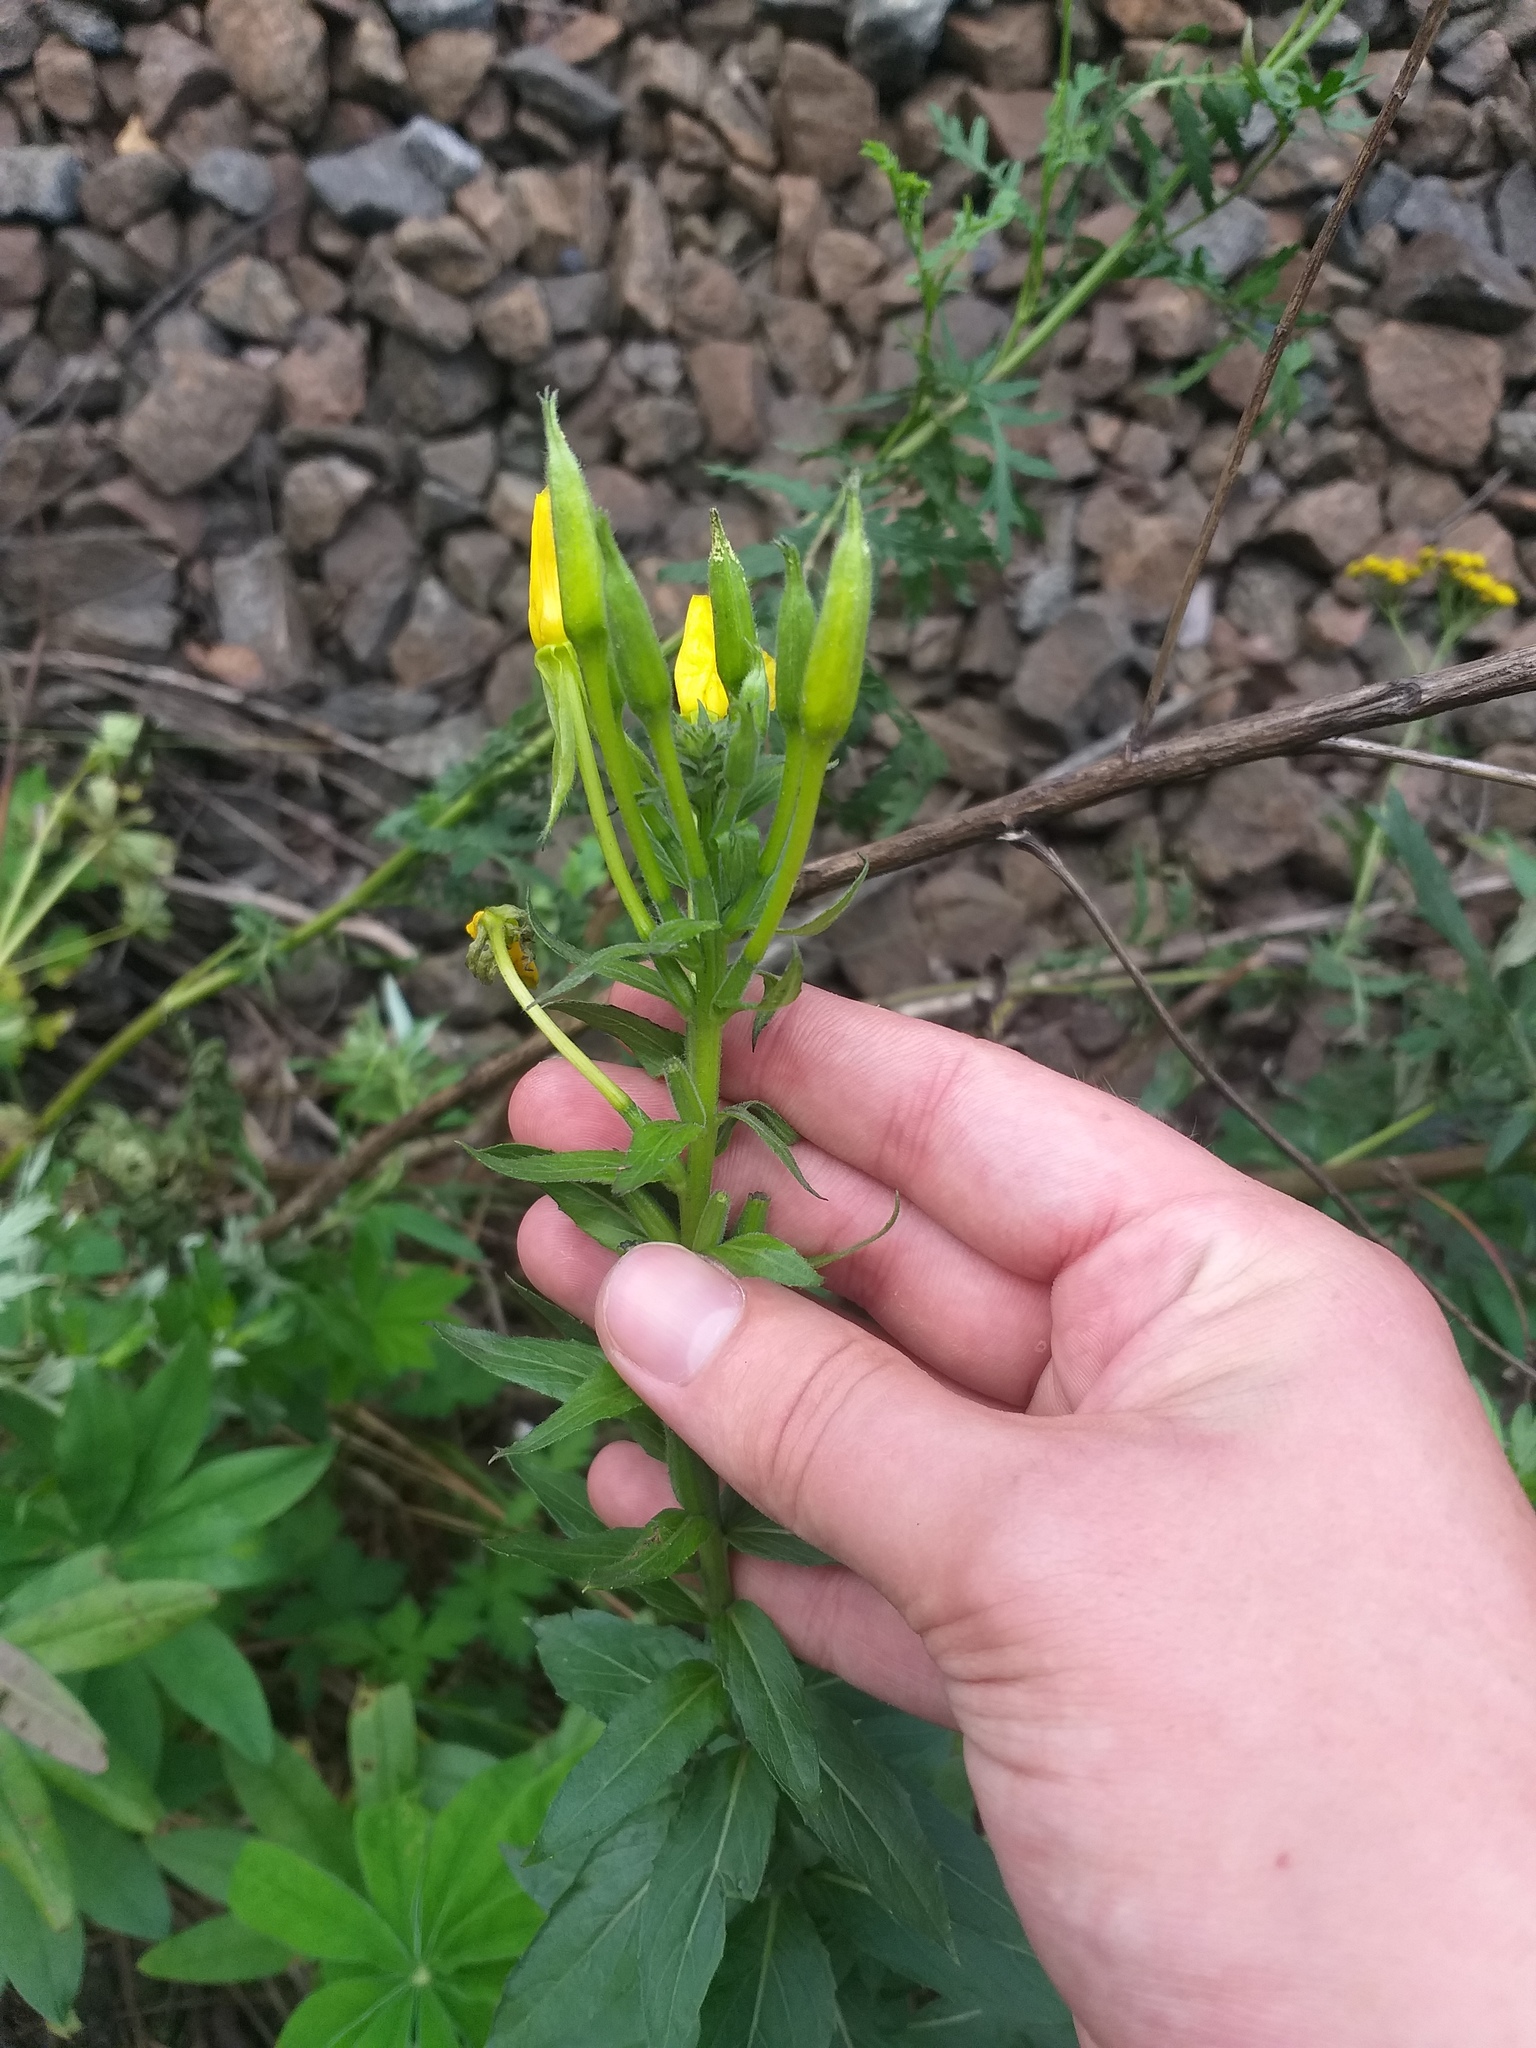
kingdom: Plantae
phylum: Tracheophyta
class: Magnoliopsida
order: Myrtales
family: Onagraceae
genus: Oenothera
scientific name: Oenothera biennis
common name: Common evening-primrose
